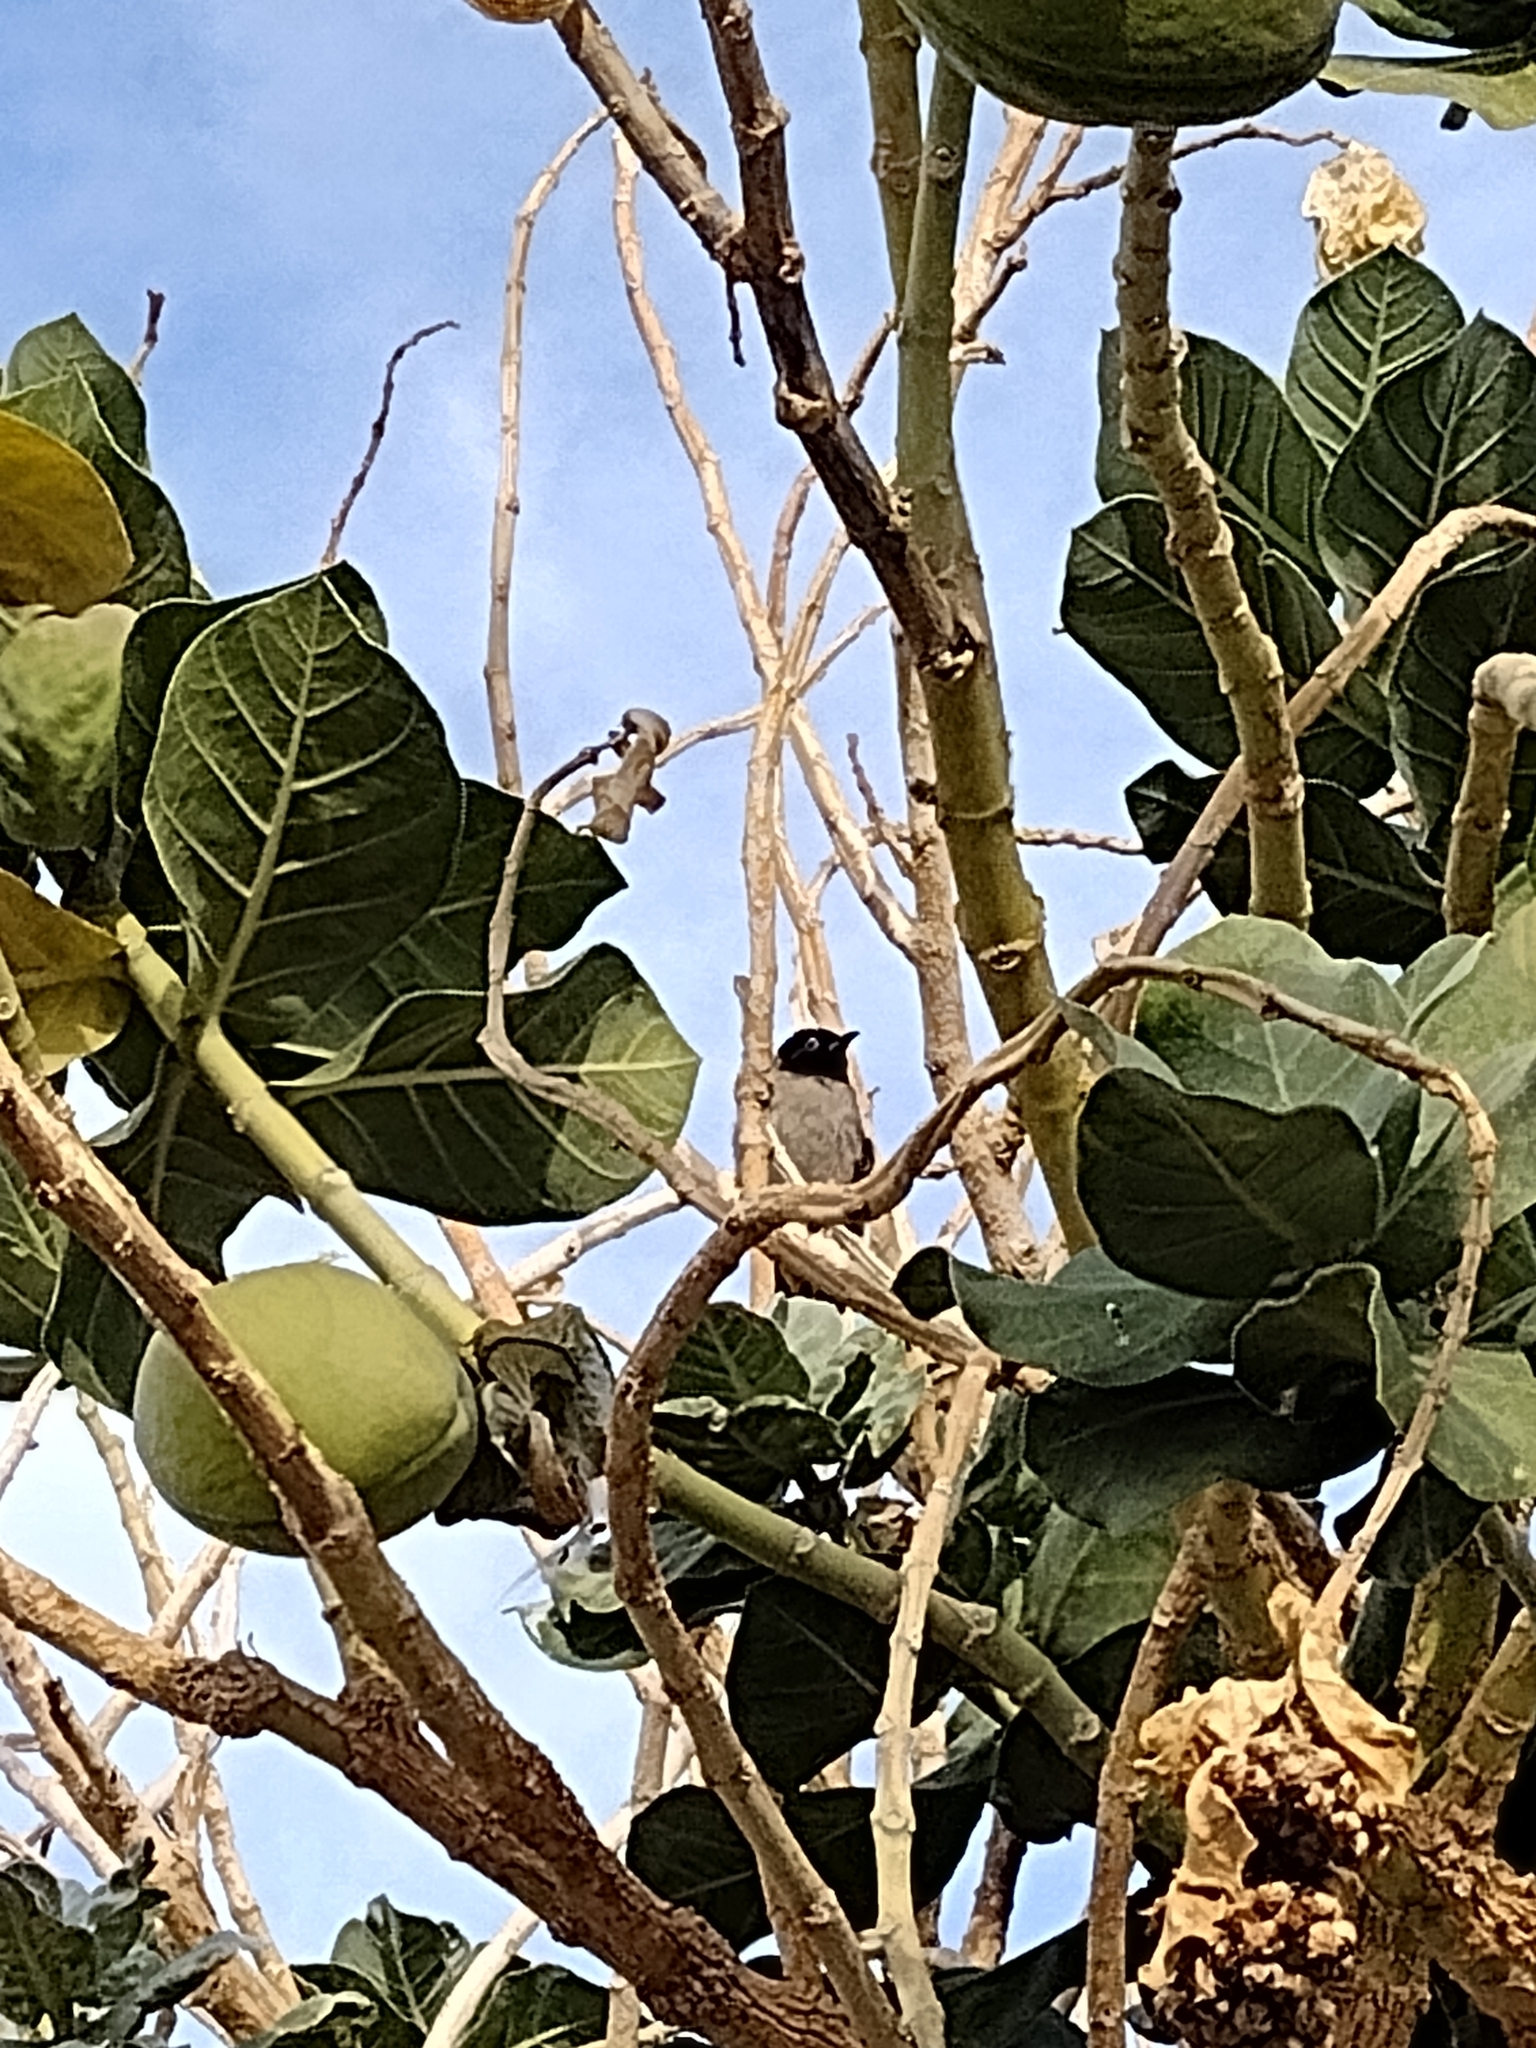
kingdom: Animalia
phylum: Chordata
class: Aves
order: Passeriformes
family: Pycnonotidae
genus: Pycnonotus
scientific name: Pycnonotus xanthopygos
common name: White-spectacled bulbul
